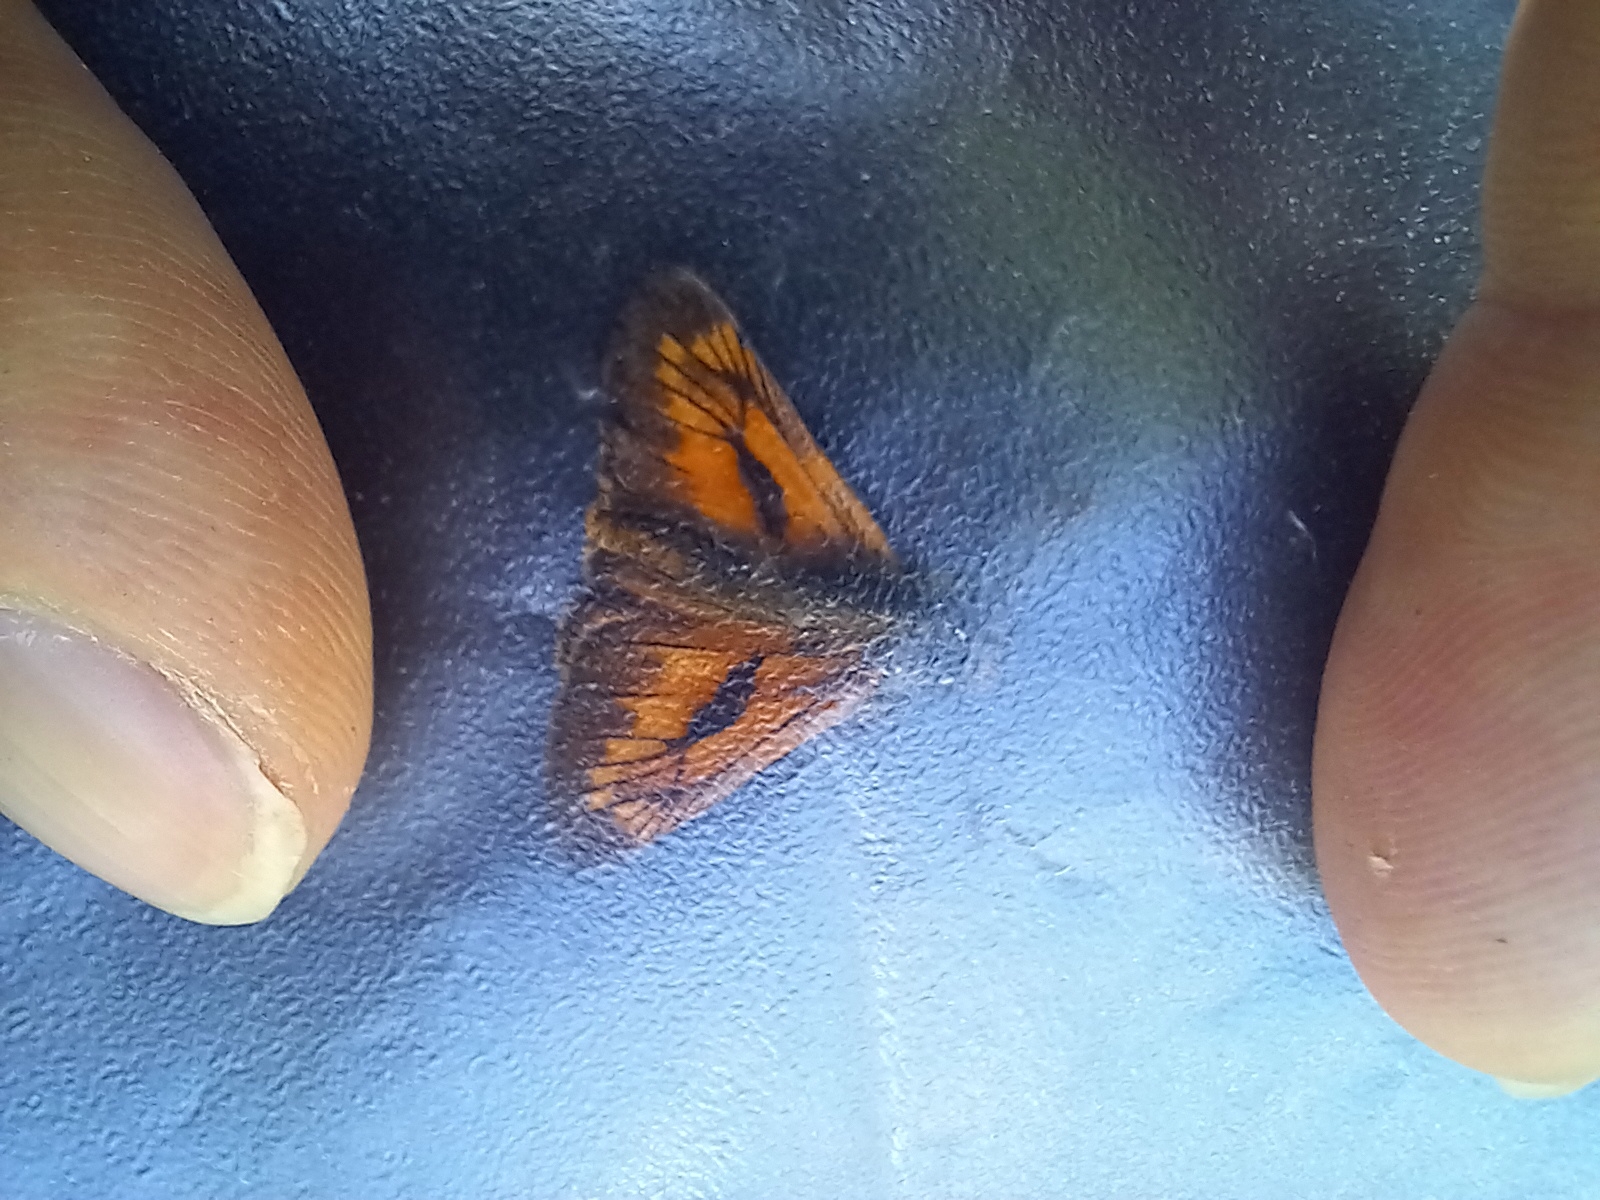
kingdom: Animalia
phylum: Arthropoda
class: Insecta
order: Lepidoptera
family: Hesperiidae
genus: Ochlodes
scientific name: Ochlodes venata
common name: Large skipper
